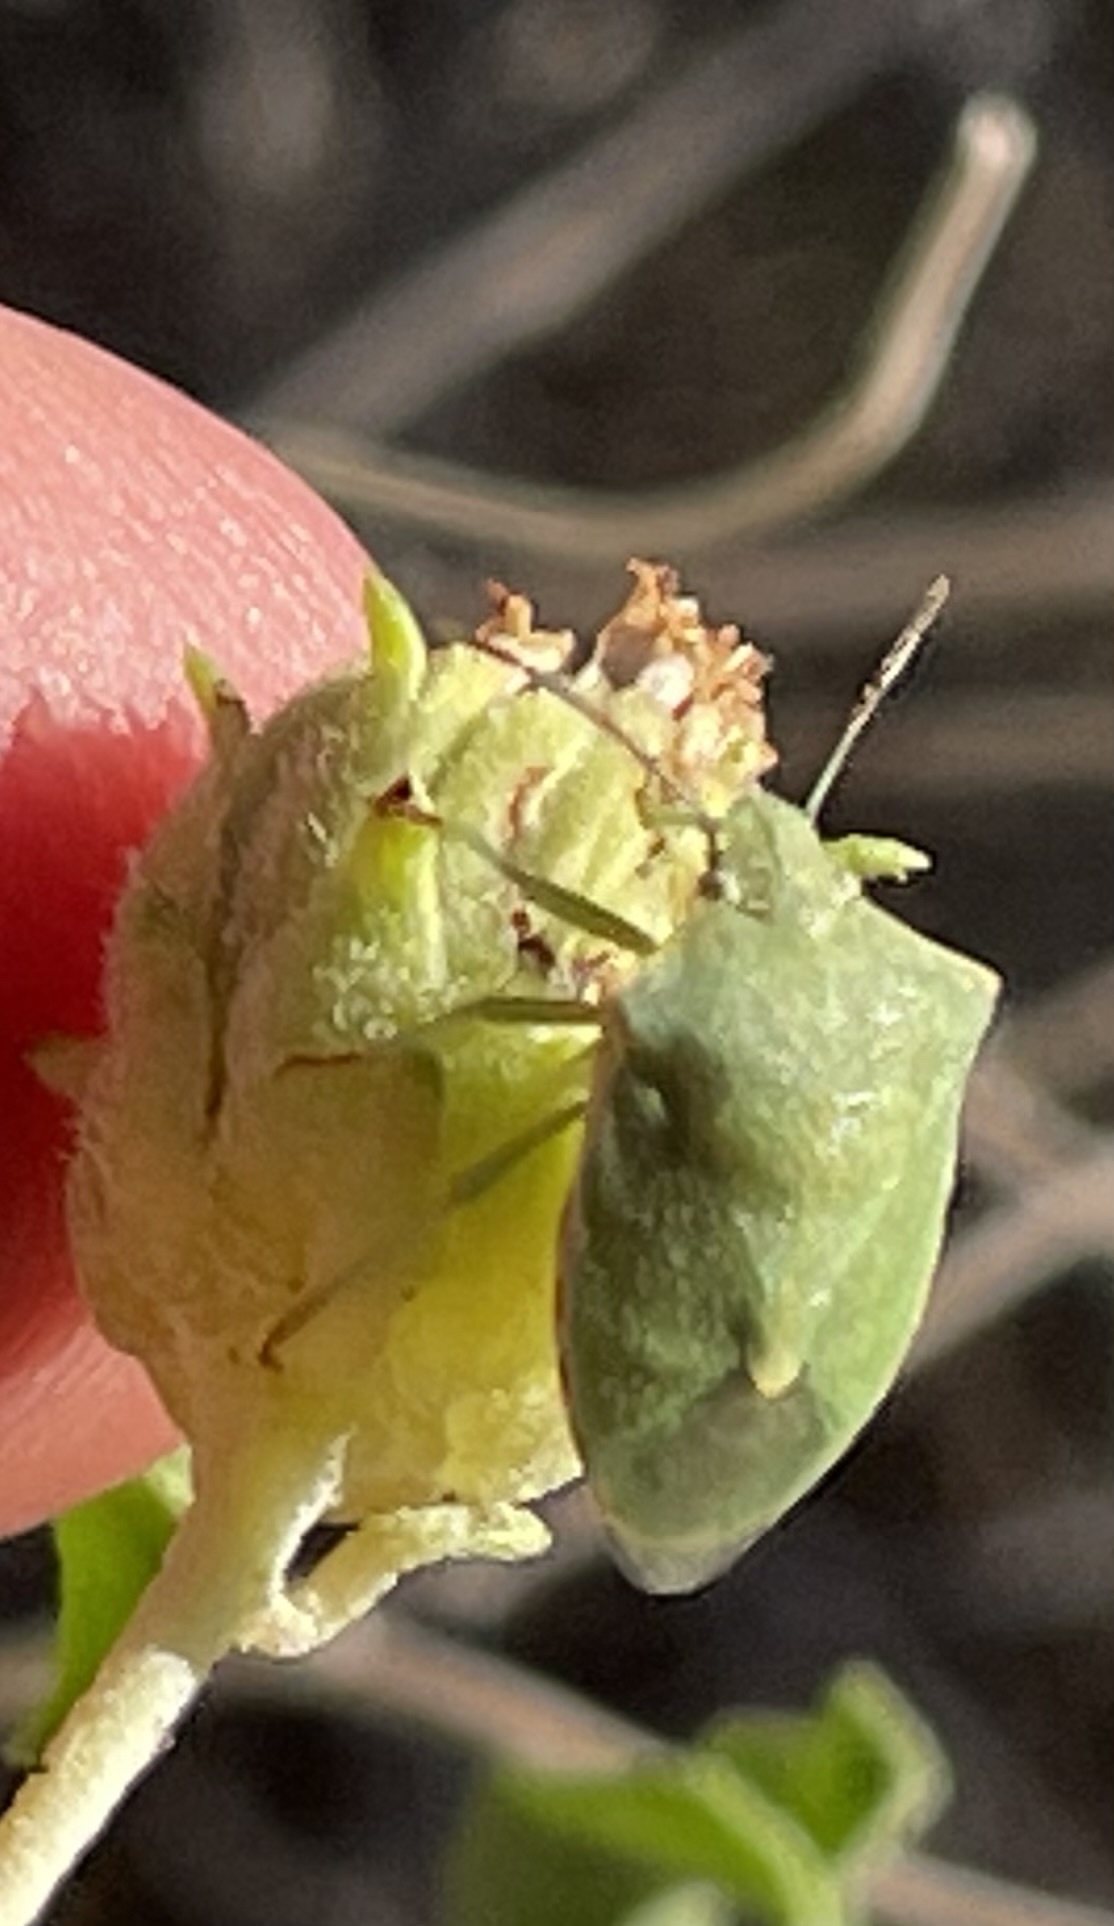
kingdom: Animalia
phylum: Arthropoda
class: Insecta
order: Hemiptera
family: Pentatomidae
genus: Thyanta
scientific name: Thyanta custator
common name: Stink bug
